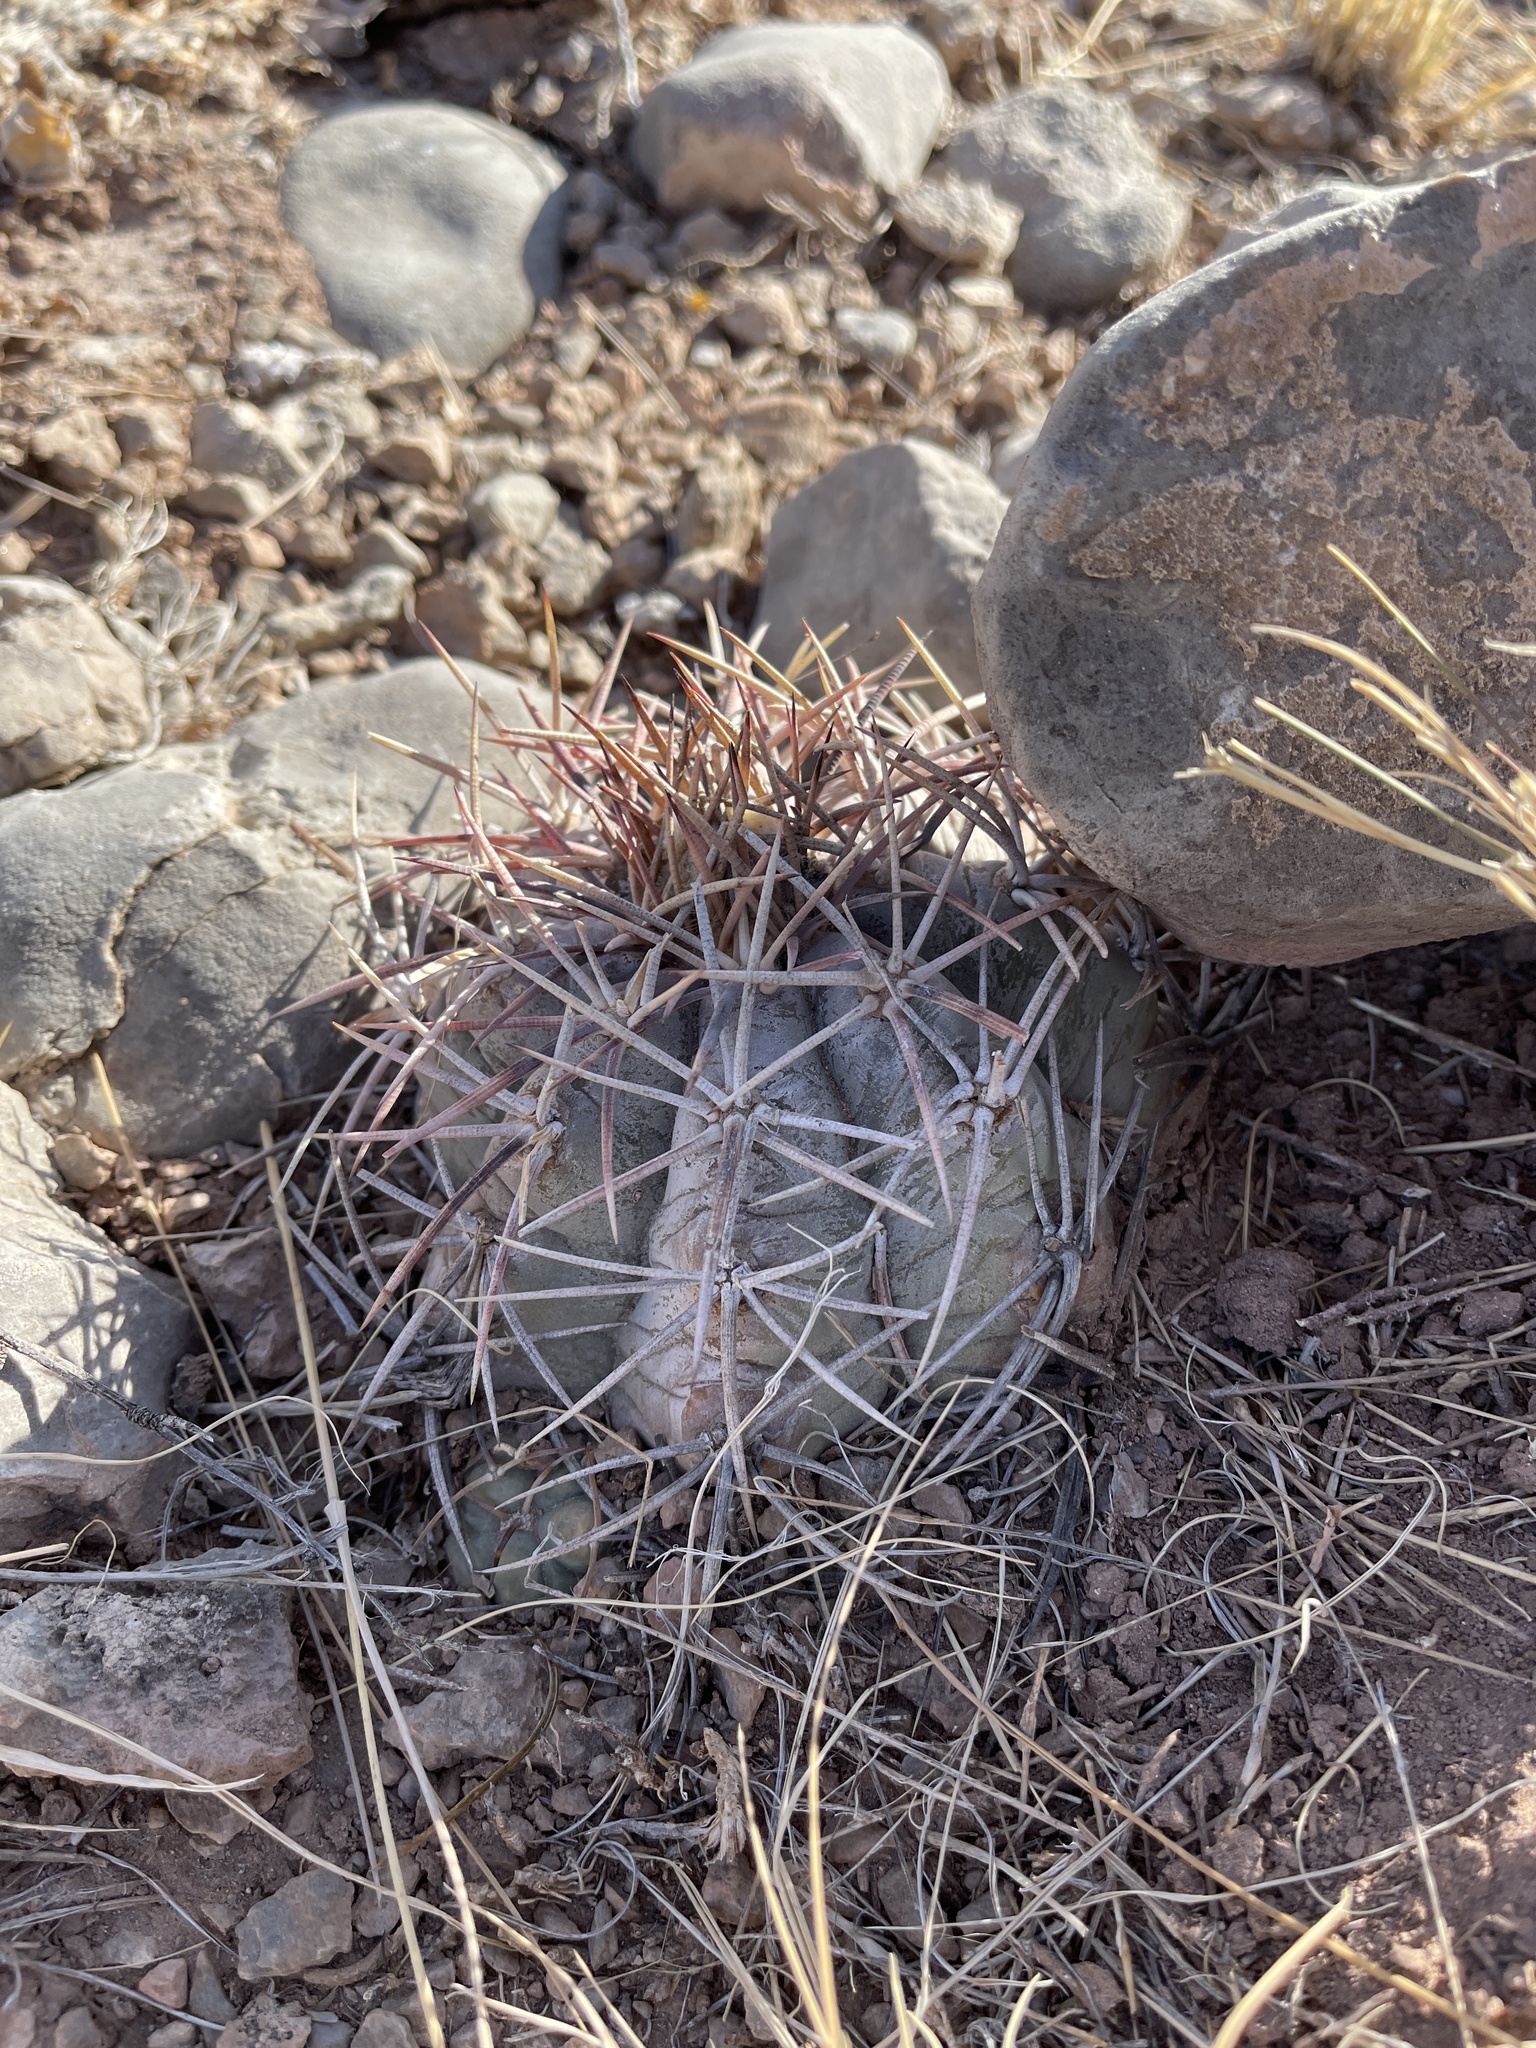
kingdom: Plantae
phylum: Tracheophyta
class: Magnoliopsida
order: Caryophyllales
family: Cactaceae
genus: Echinocactus
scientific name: Echinocactus horizonthalonius
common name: Devilshead
